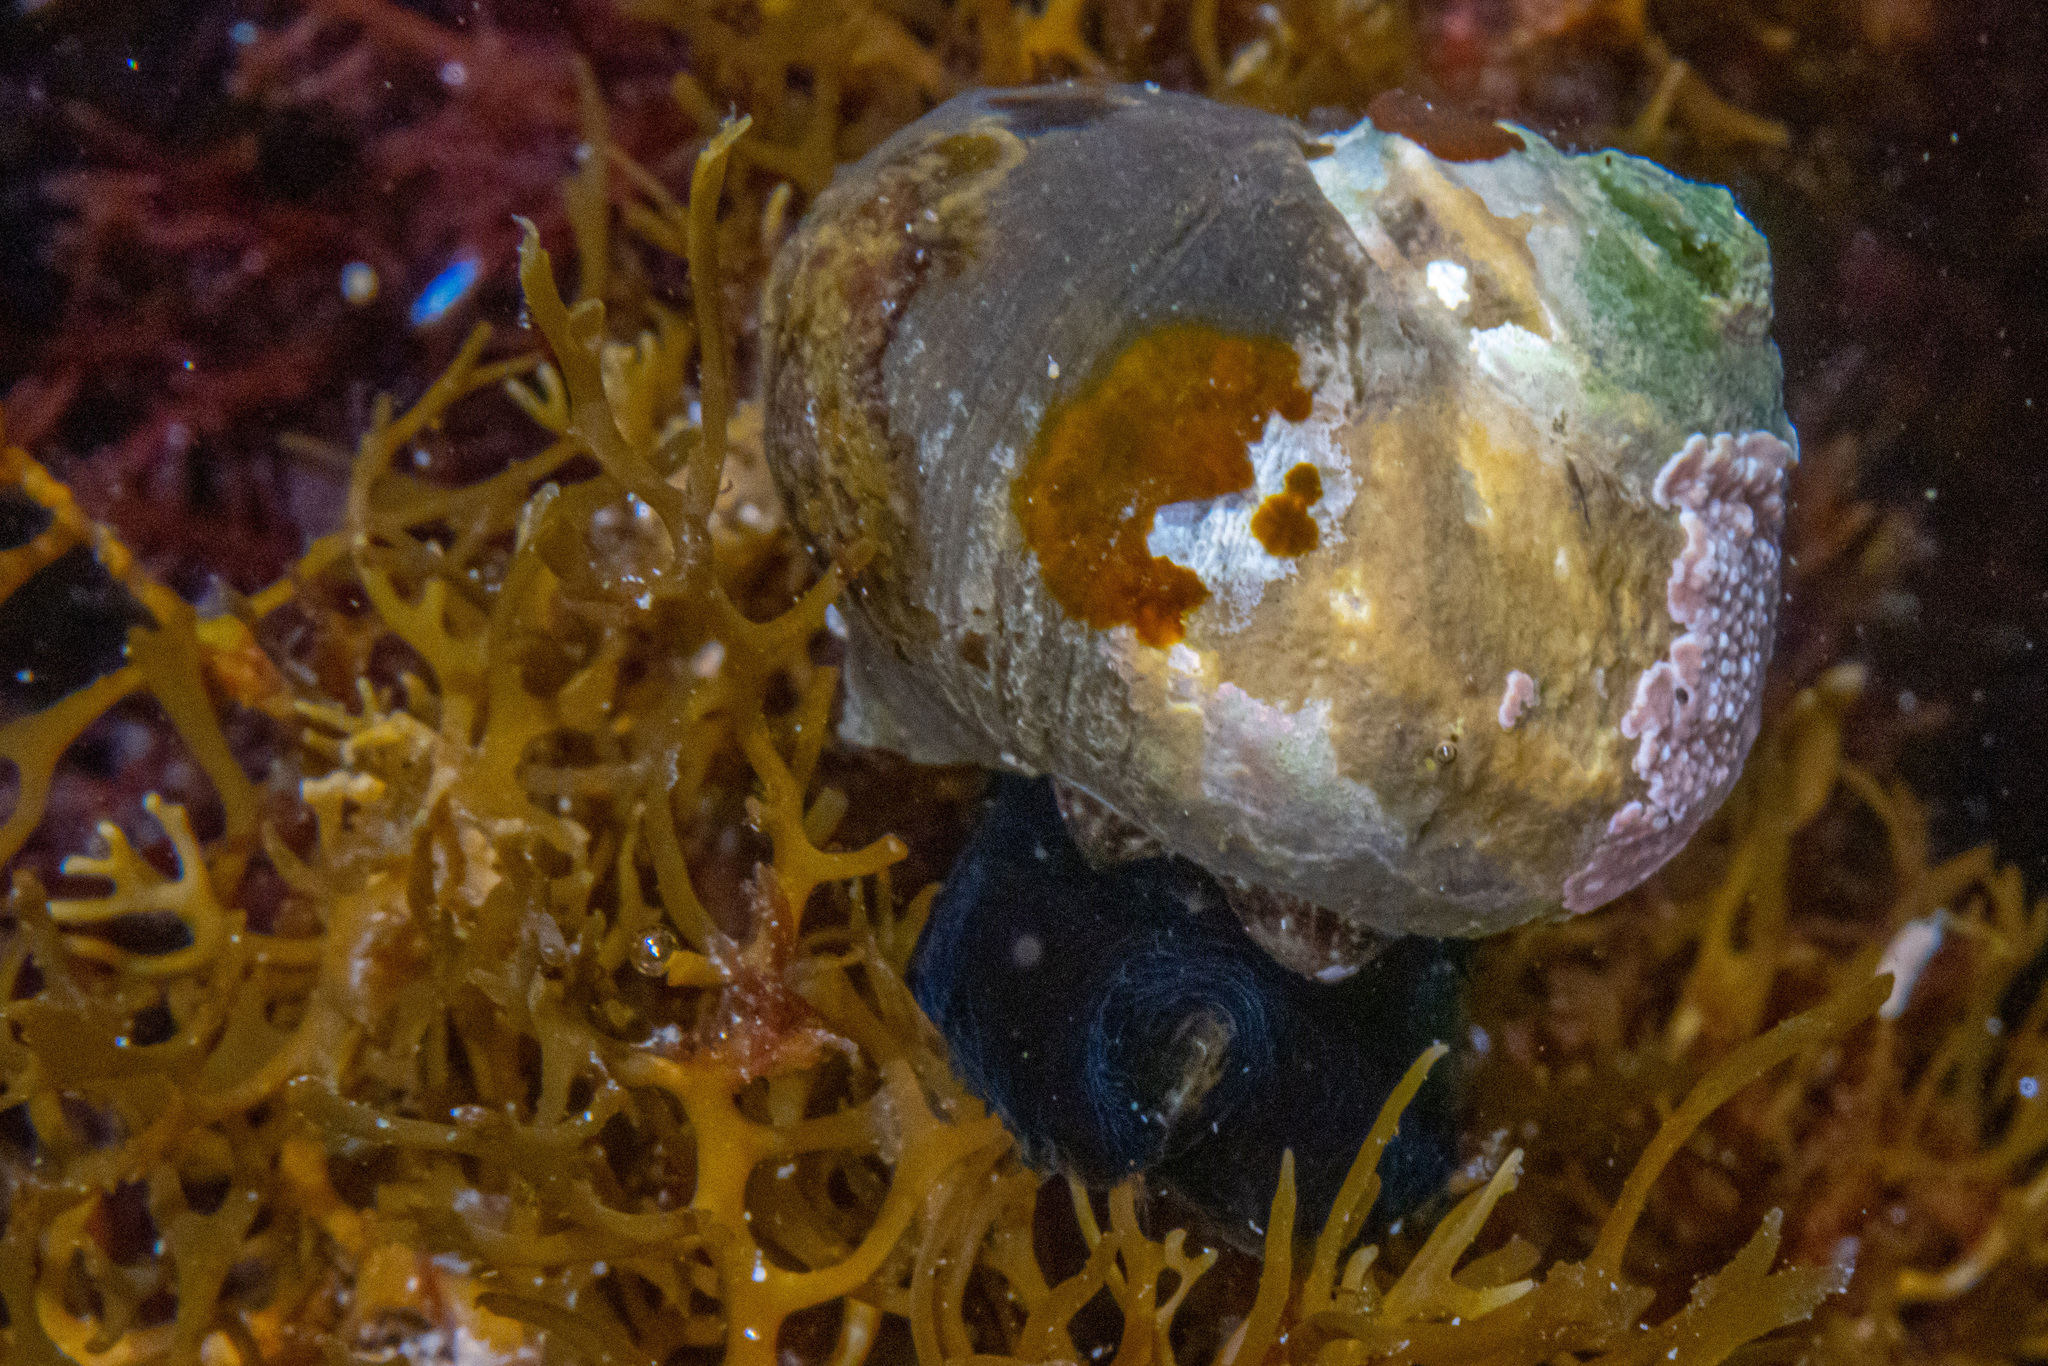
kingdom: Animalia
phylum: Mollusca
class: Gastropoda
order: Trochida
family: Turbinidae
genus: Lunella
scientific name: Lunella smaragda
